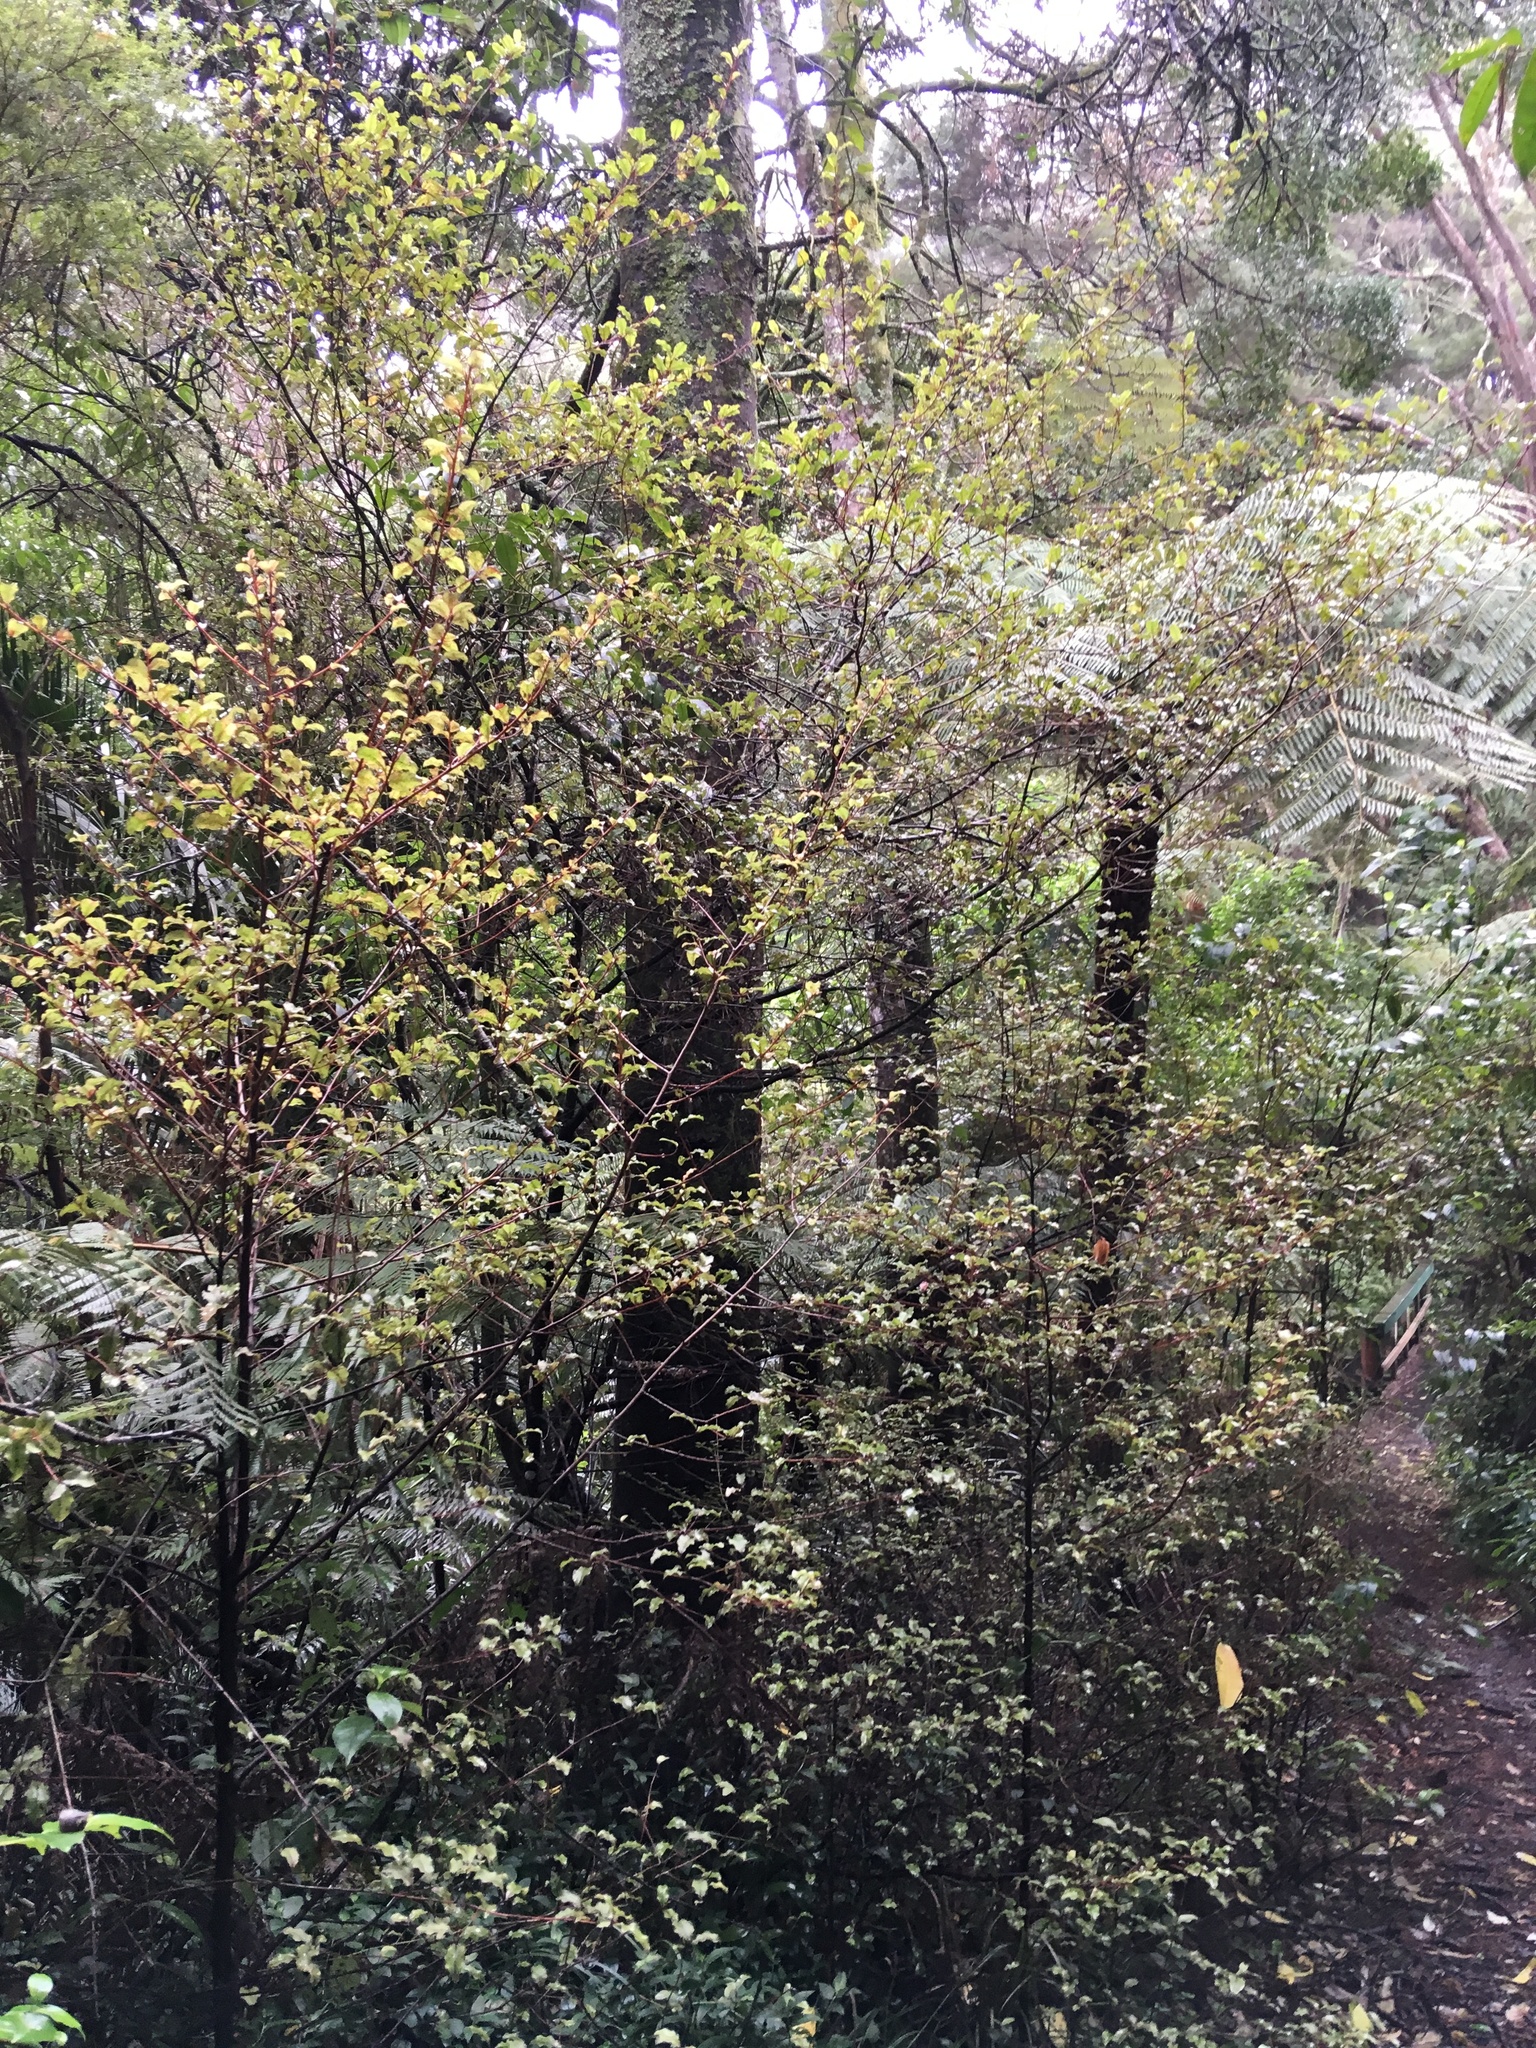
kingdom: Plantae
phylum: Tracheophyta
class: Pinopsida
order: Pinales
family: Phyllocladaceae
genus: Phyllocladus
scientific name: Phyllocladus trichomanoides
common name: Celery pine
